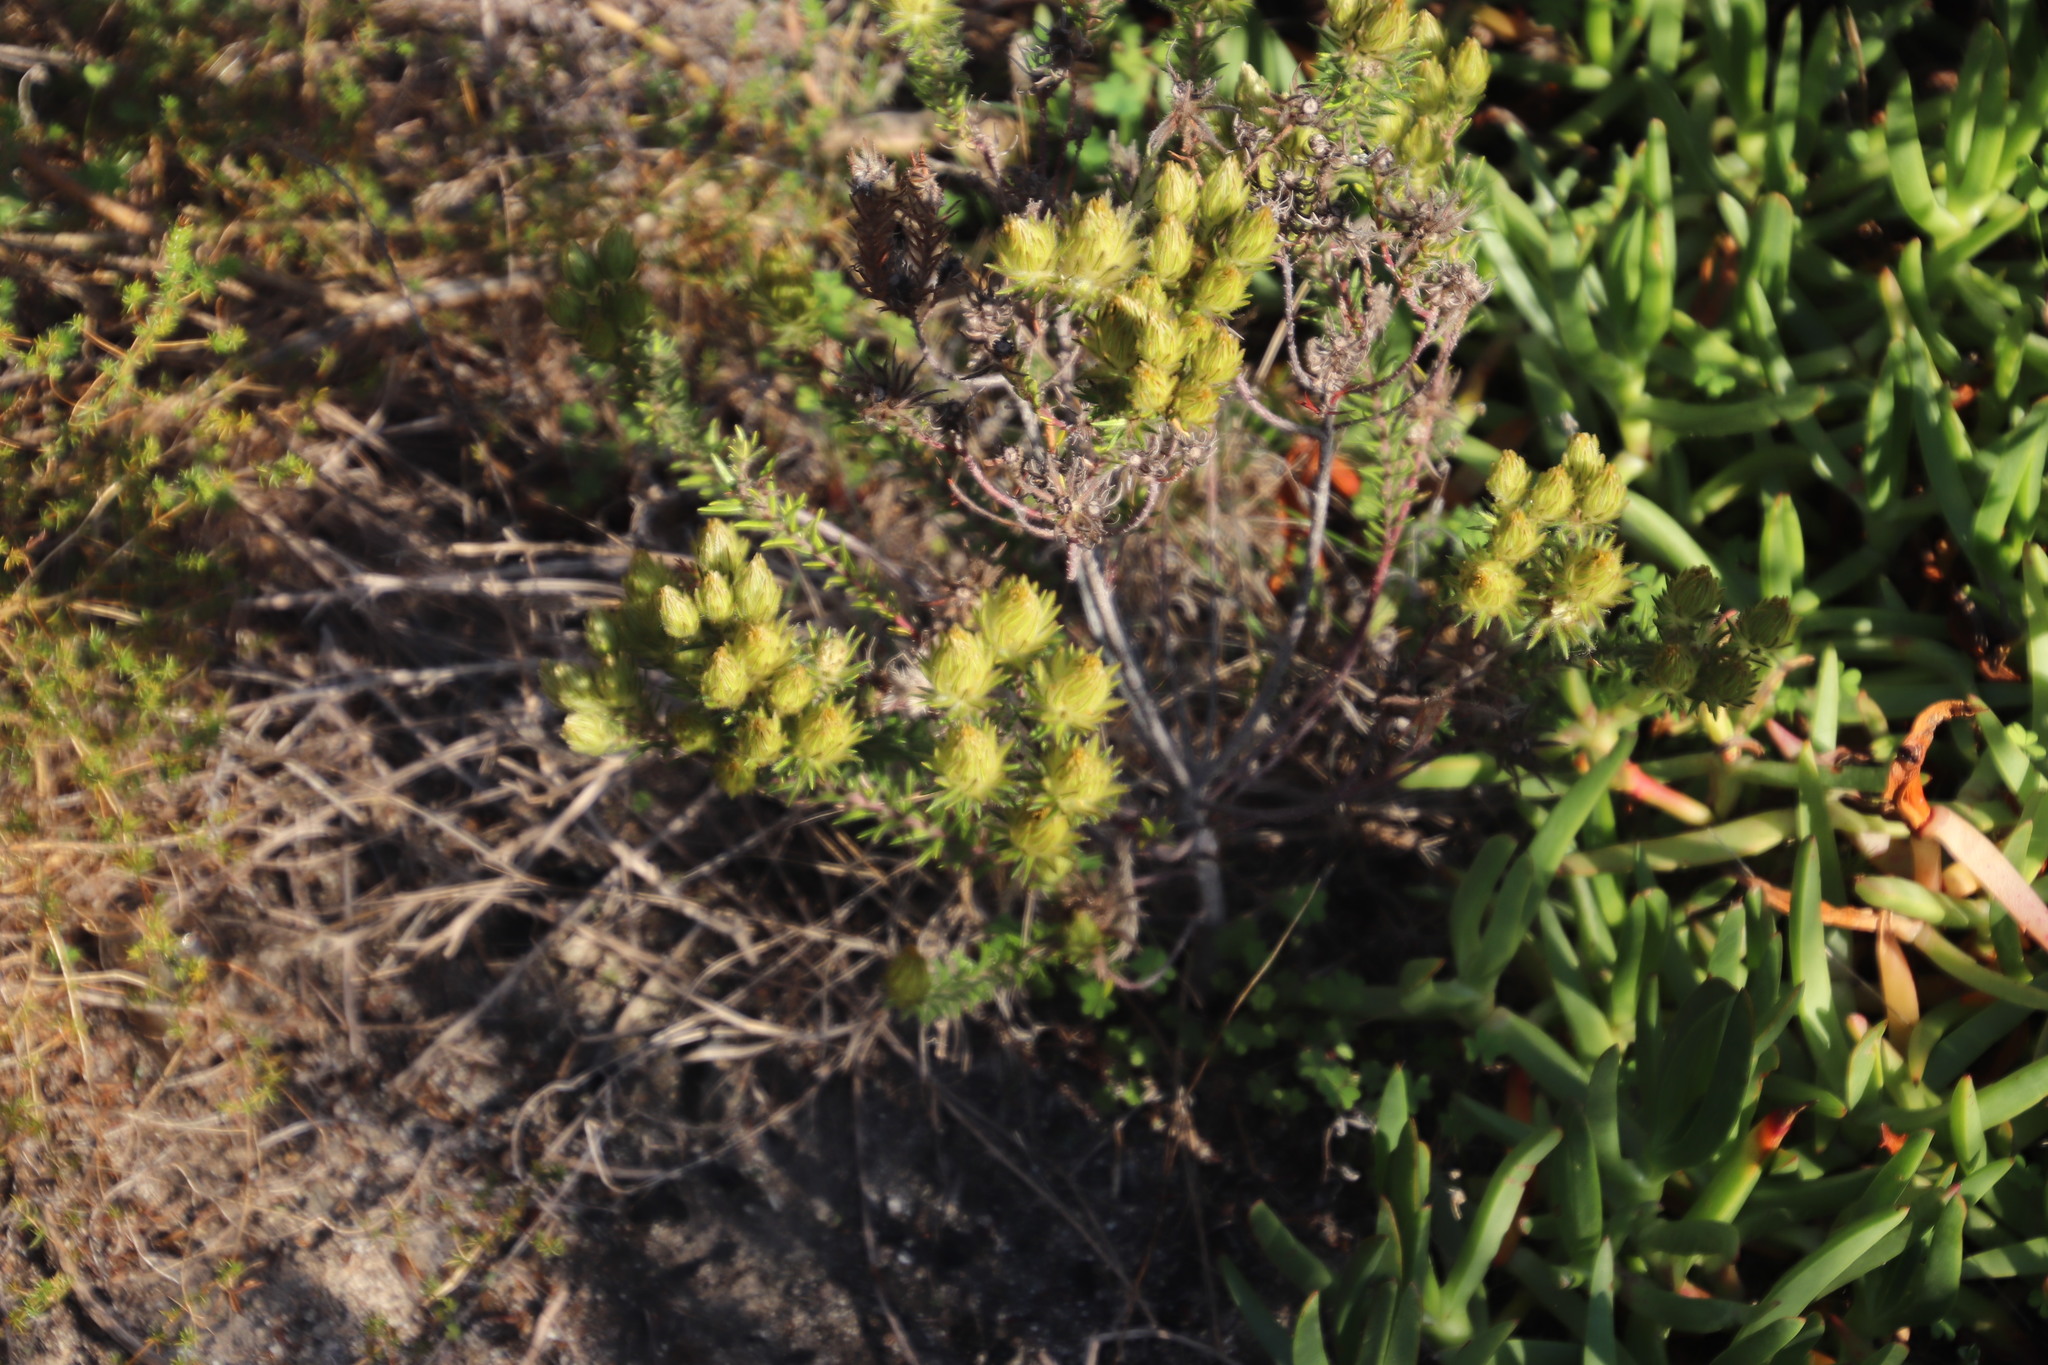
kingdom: Plantae
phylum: Tracheophyta
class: Magnoliopsida
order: Rosales
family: Rhamnaceae
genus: Phylica
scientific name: Phylica pubescens
